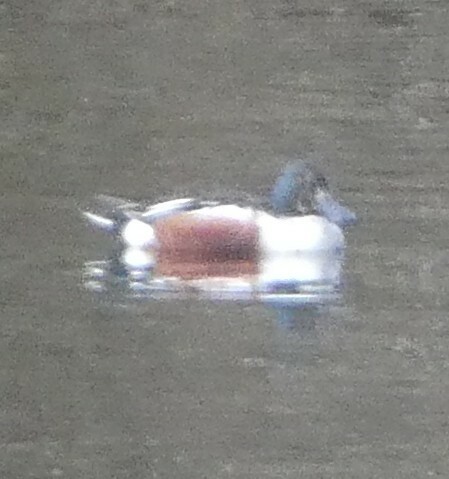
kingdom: Animalia
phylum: Chordata
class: Aves
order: Anseriformes
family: Anatidae
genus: Spatula
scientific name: Spatula clypeata
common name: Northern shoveler
